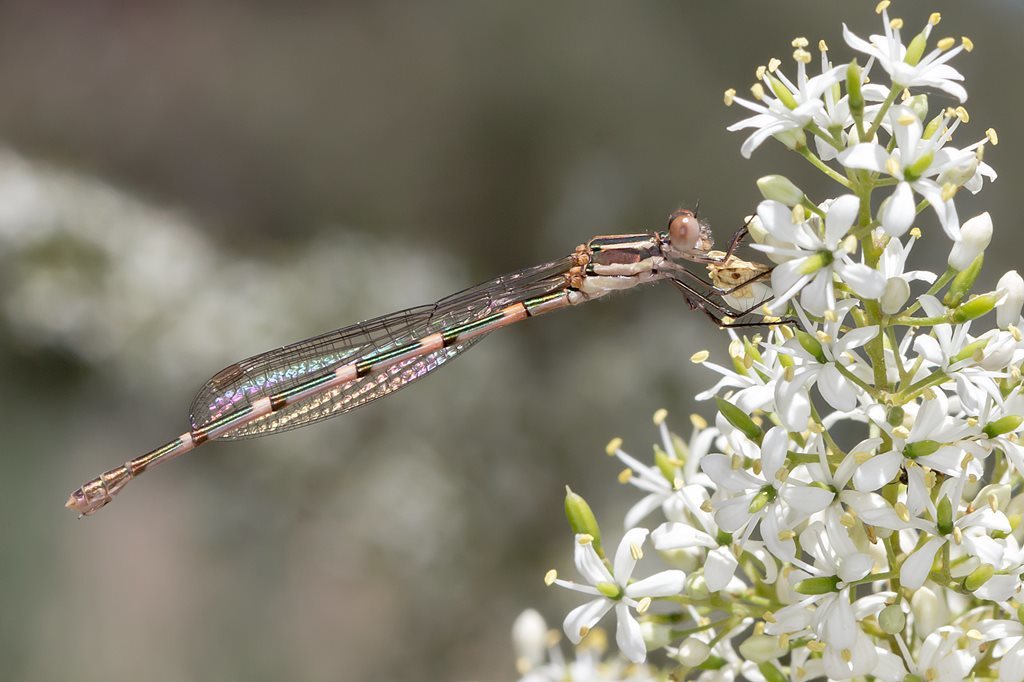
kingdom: Animalia
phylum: Arthropoda
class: Insecta
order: Odonata
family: Lestidae
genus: Austrolestes
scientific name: Austrolestes leda
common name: Wandering ringtail
